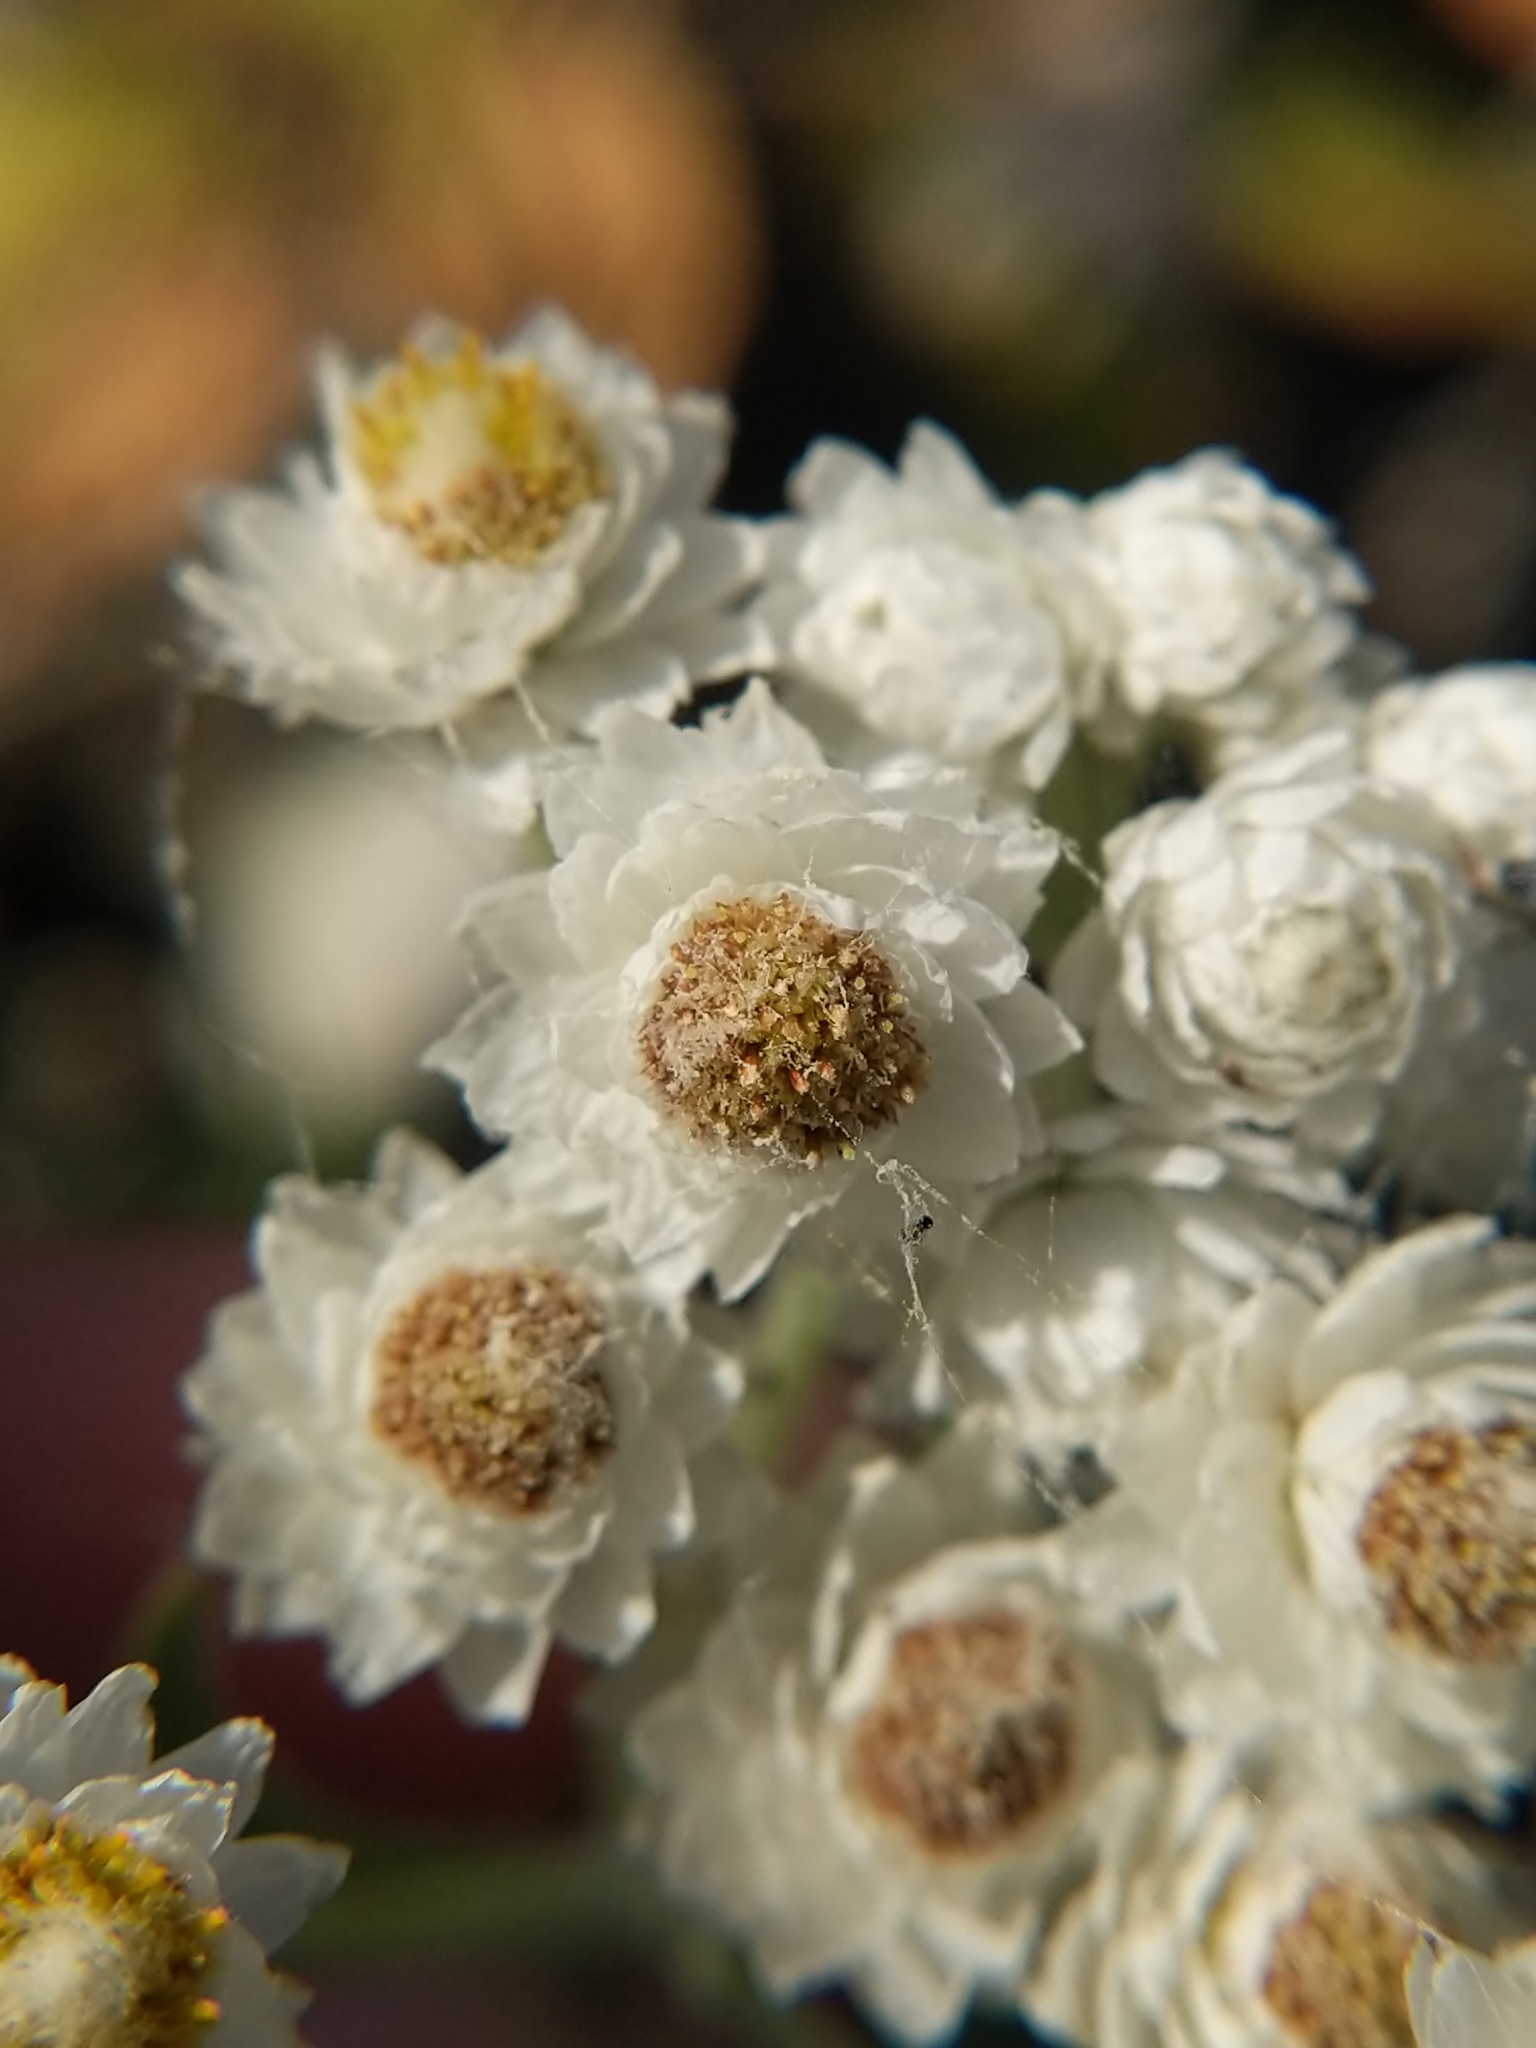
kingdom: Plantae
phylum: Tracheophyta
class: Magnoliopsida
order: Asterales
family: Asteraceae
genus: Anaphalis
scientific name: Anaphalis margaritacea
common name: Pearly everlasting
